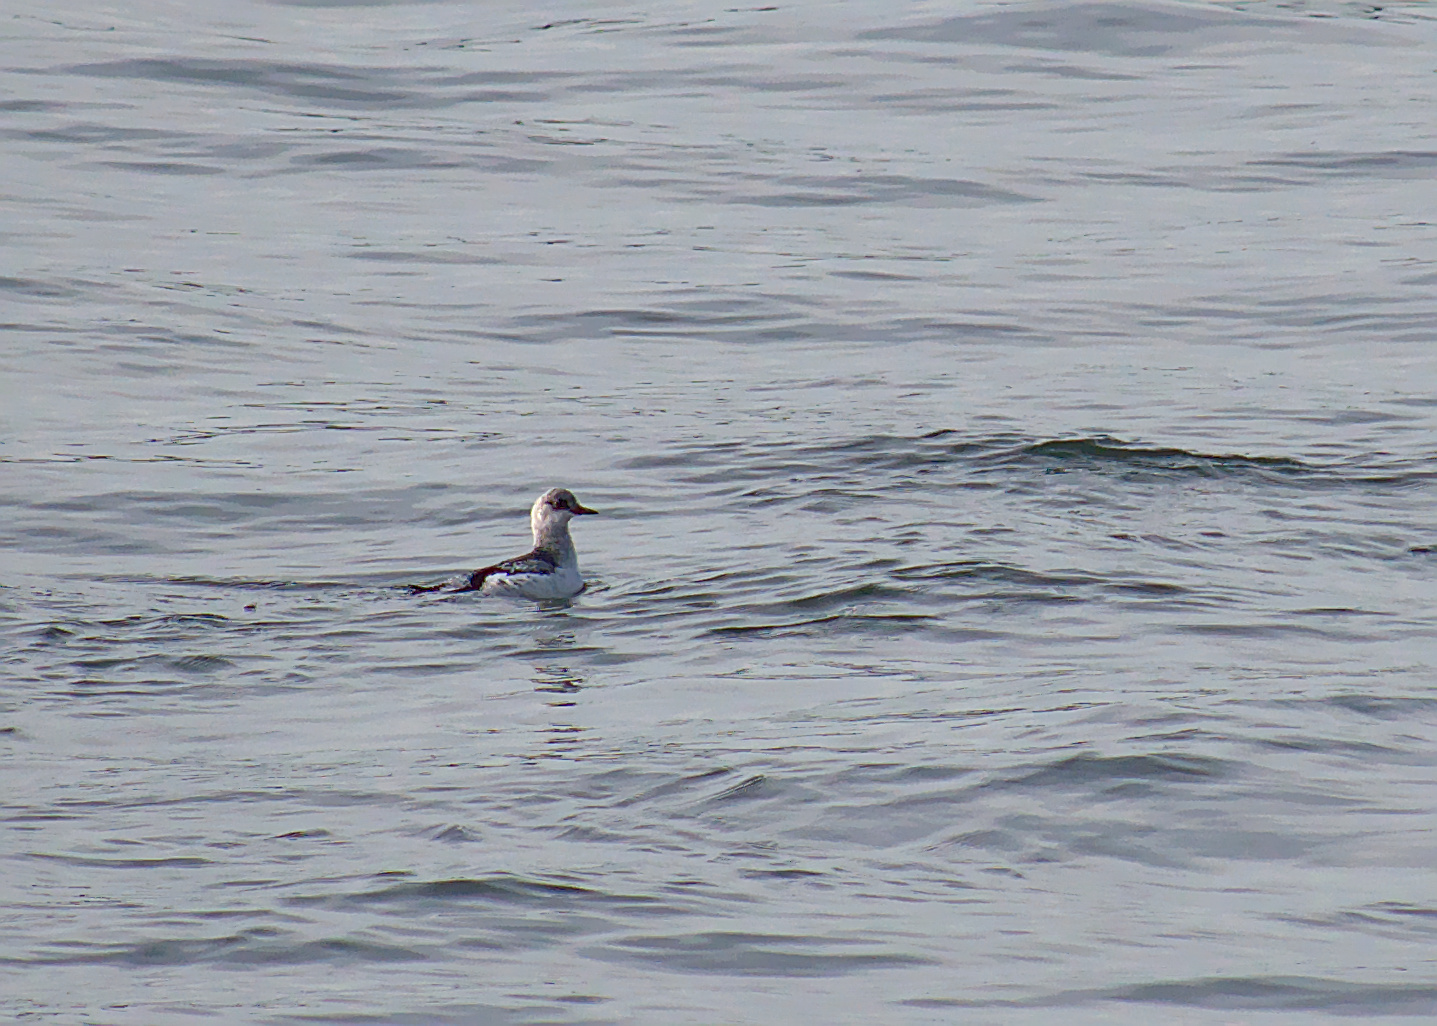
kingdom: Animalia
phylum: Chordata
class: Aves
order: Charadriiformes
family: Alcidae
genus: Cepphus
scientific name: Cepphus grylle
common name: Black guillemot
